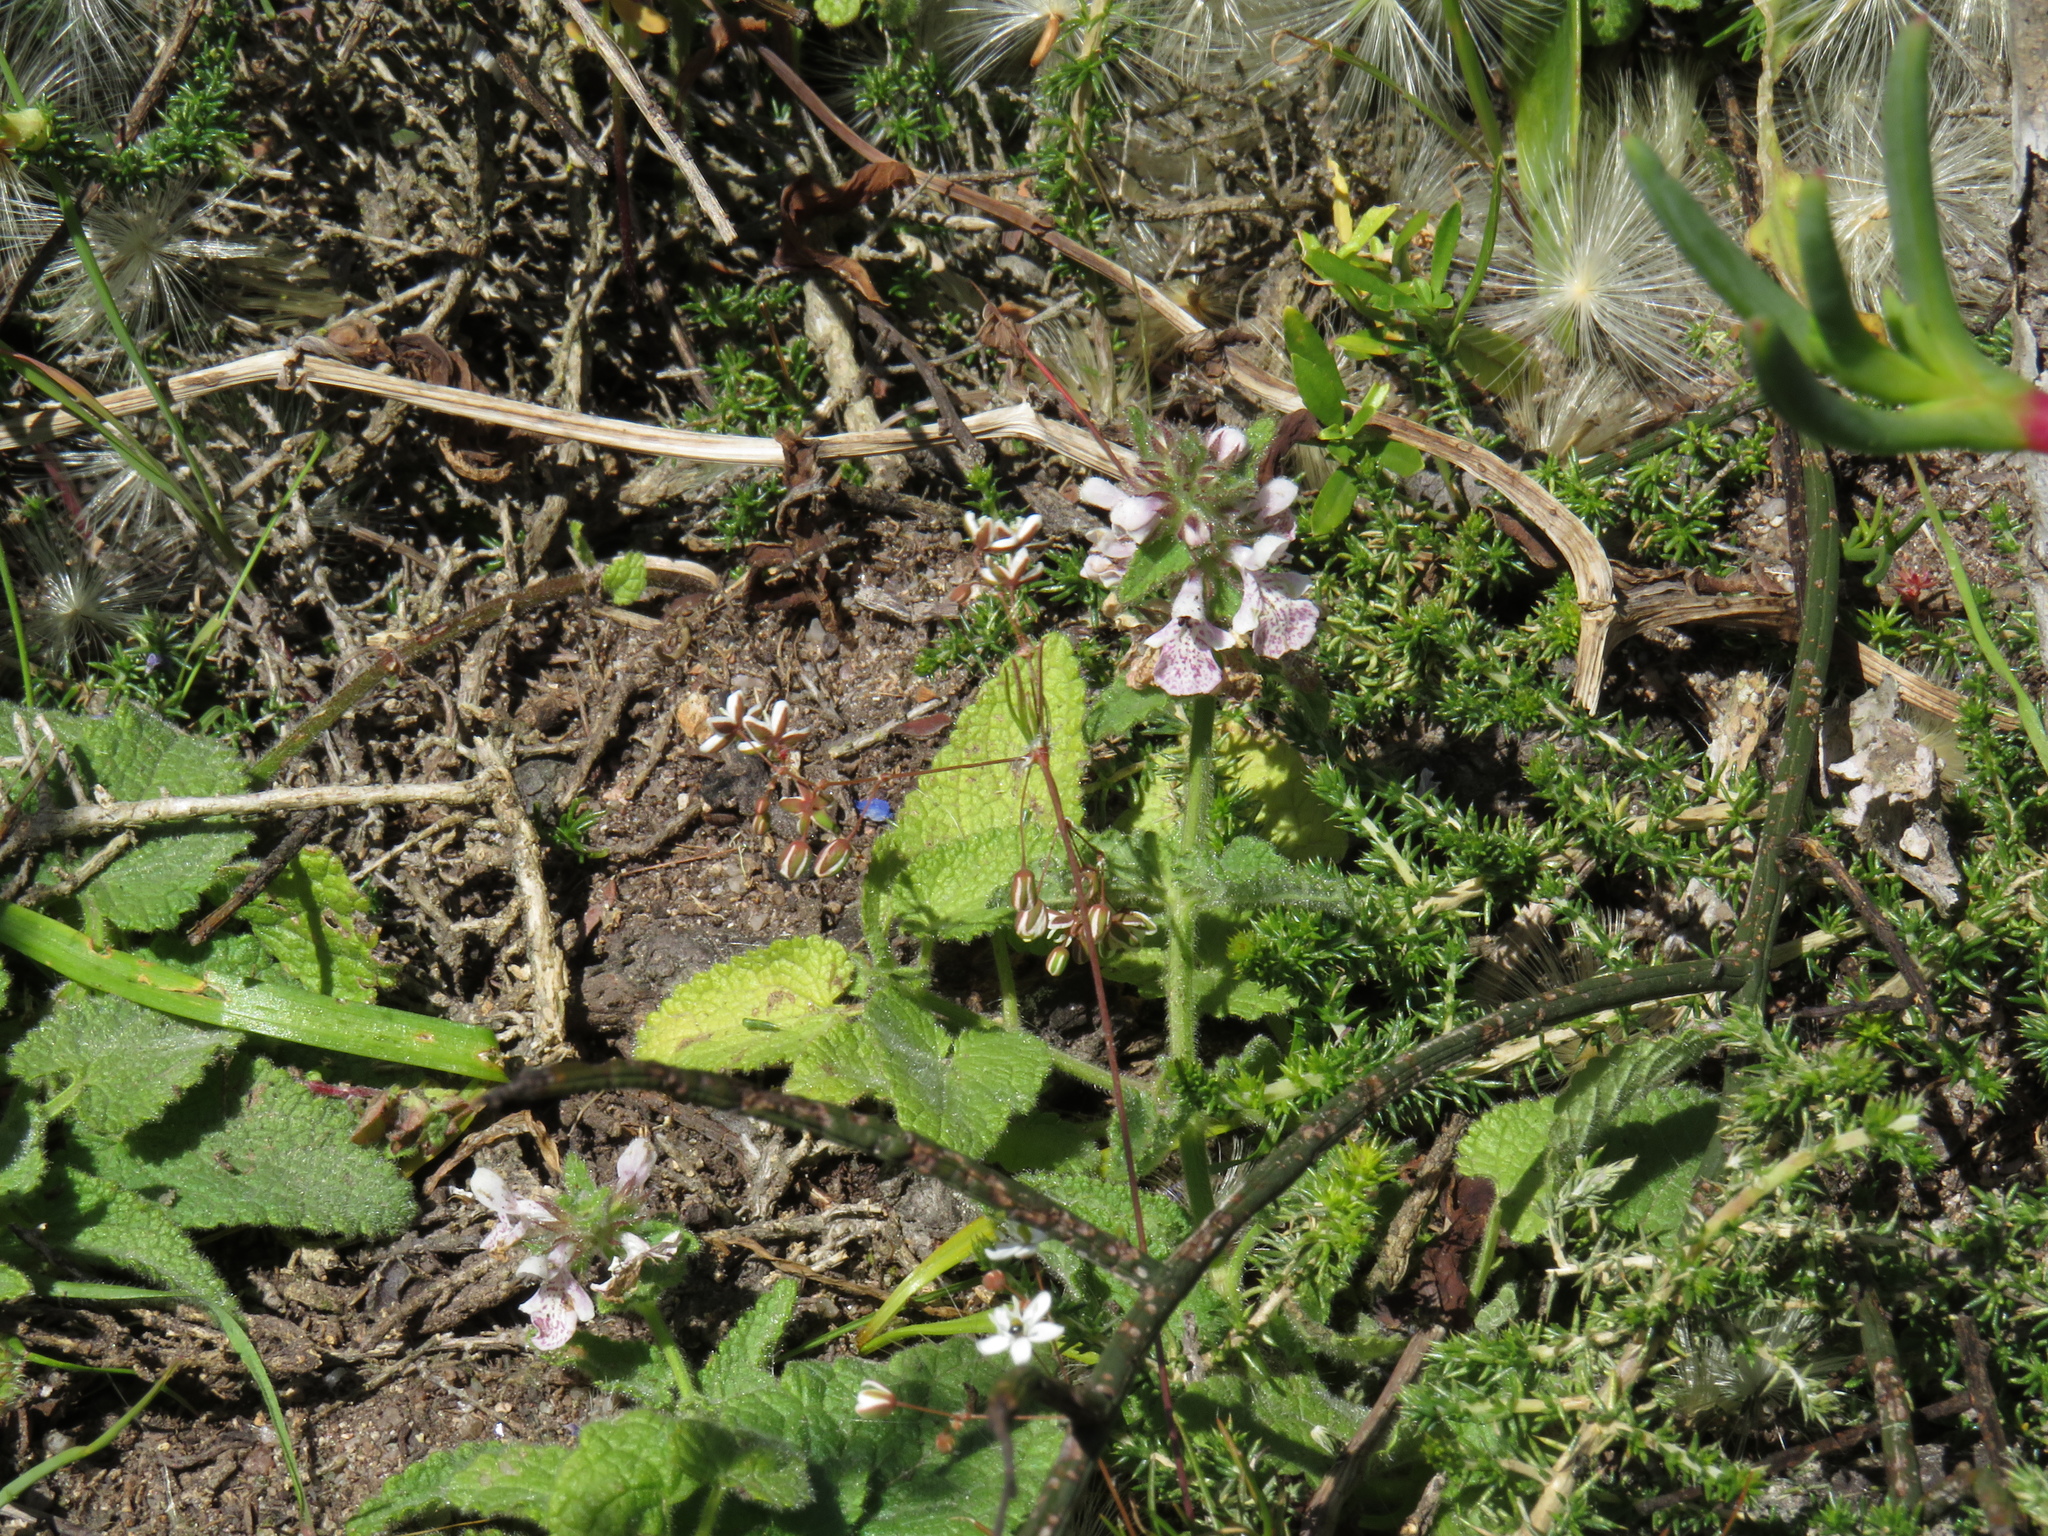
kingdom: Plantae
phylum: Tracheophyta
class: Magnoliopsida
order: Lamiales
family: Lamiaceae
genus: Stachys
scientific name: Stachys bolusii
